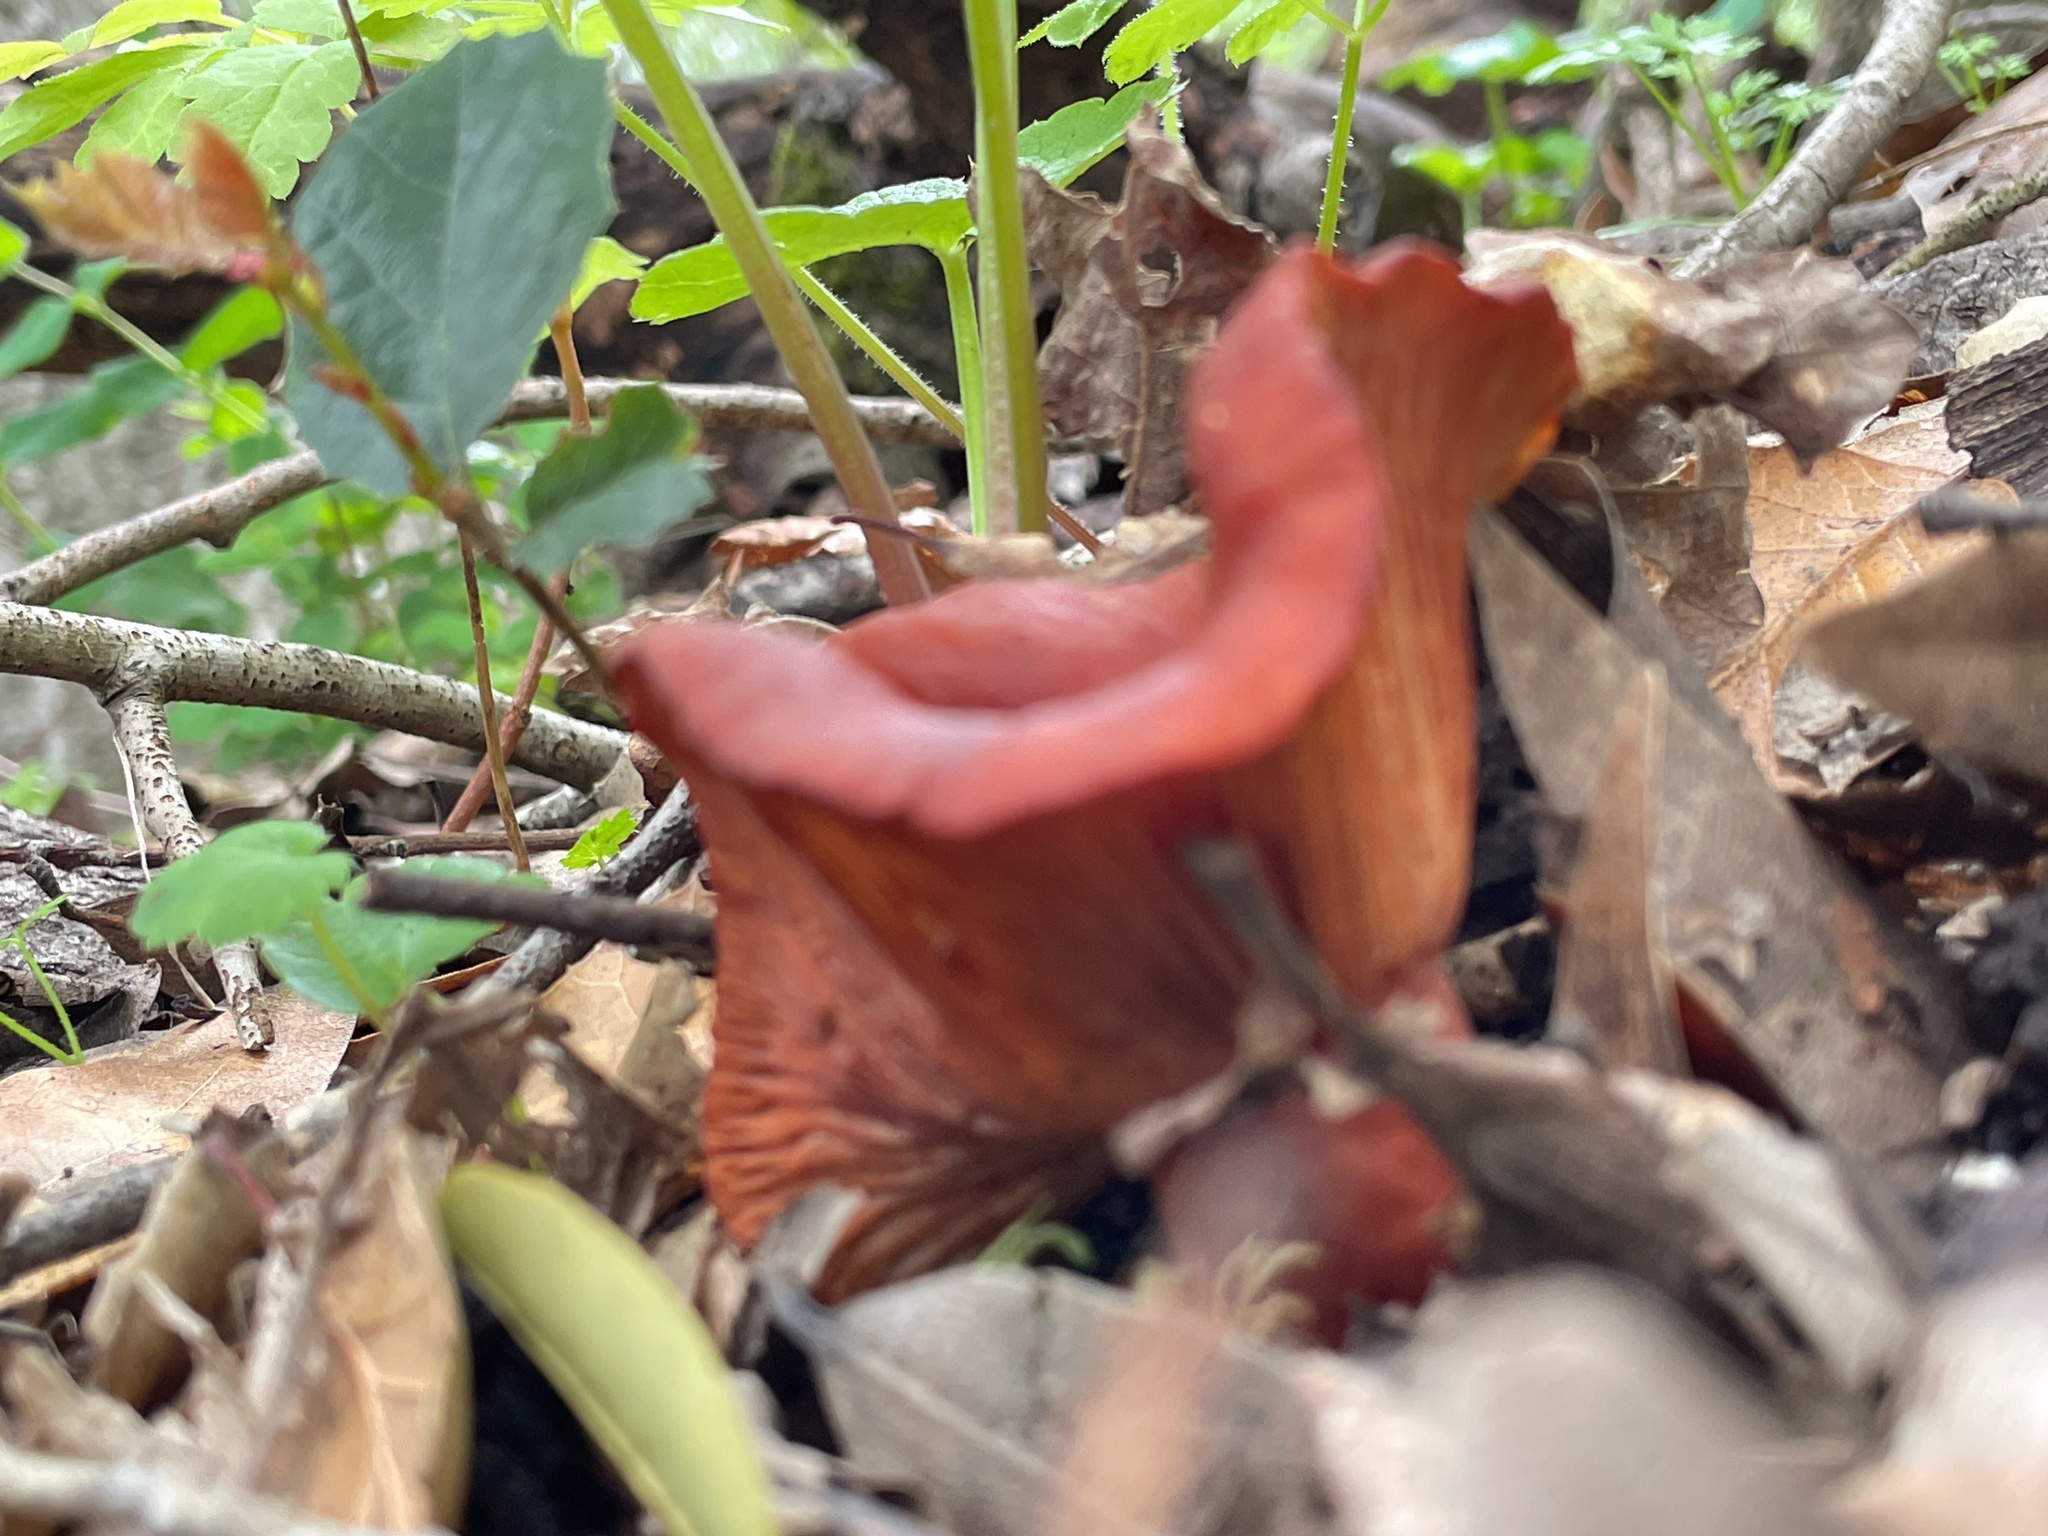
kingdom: Fungi
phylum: Basidiomycota
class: Agaricomycetes
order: Russulales
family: Russulaceae
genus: Lactarius
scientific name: Lactarius rufulus
